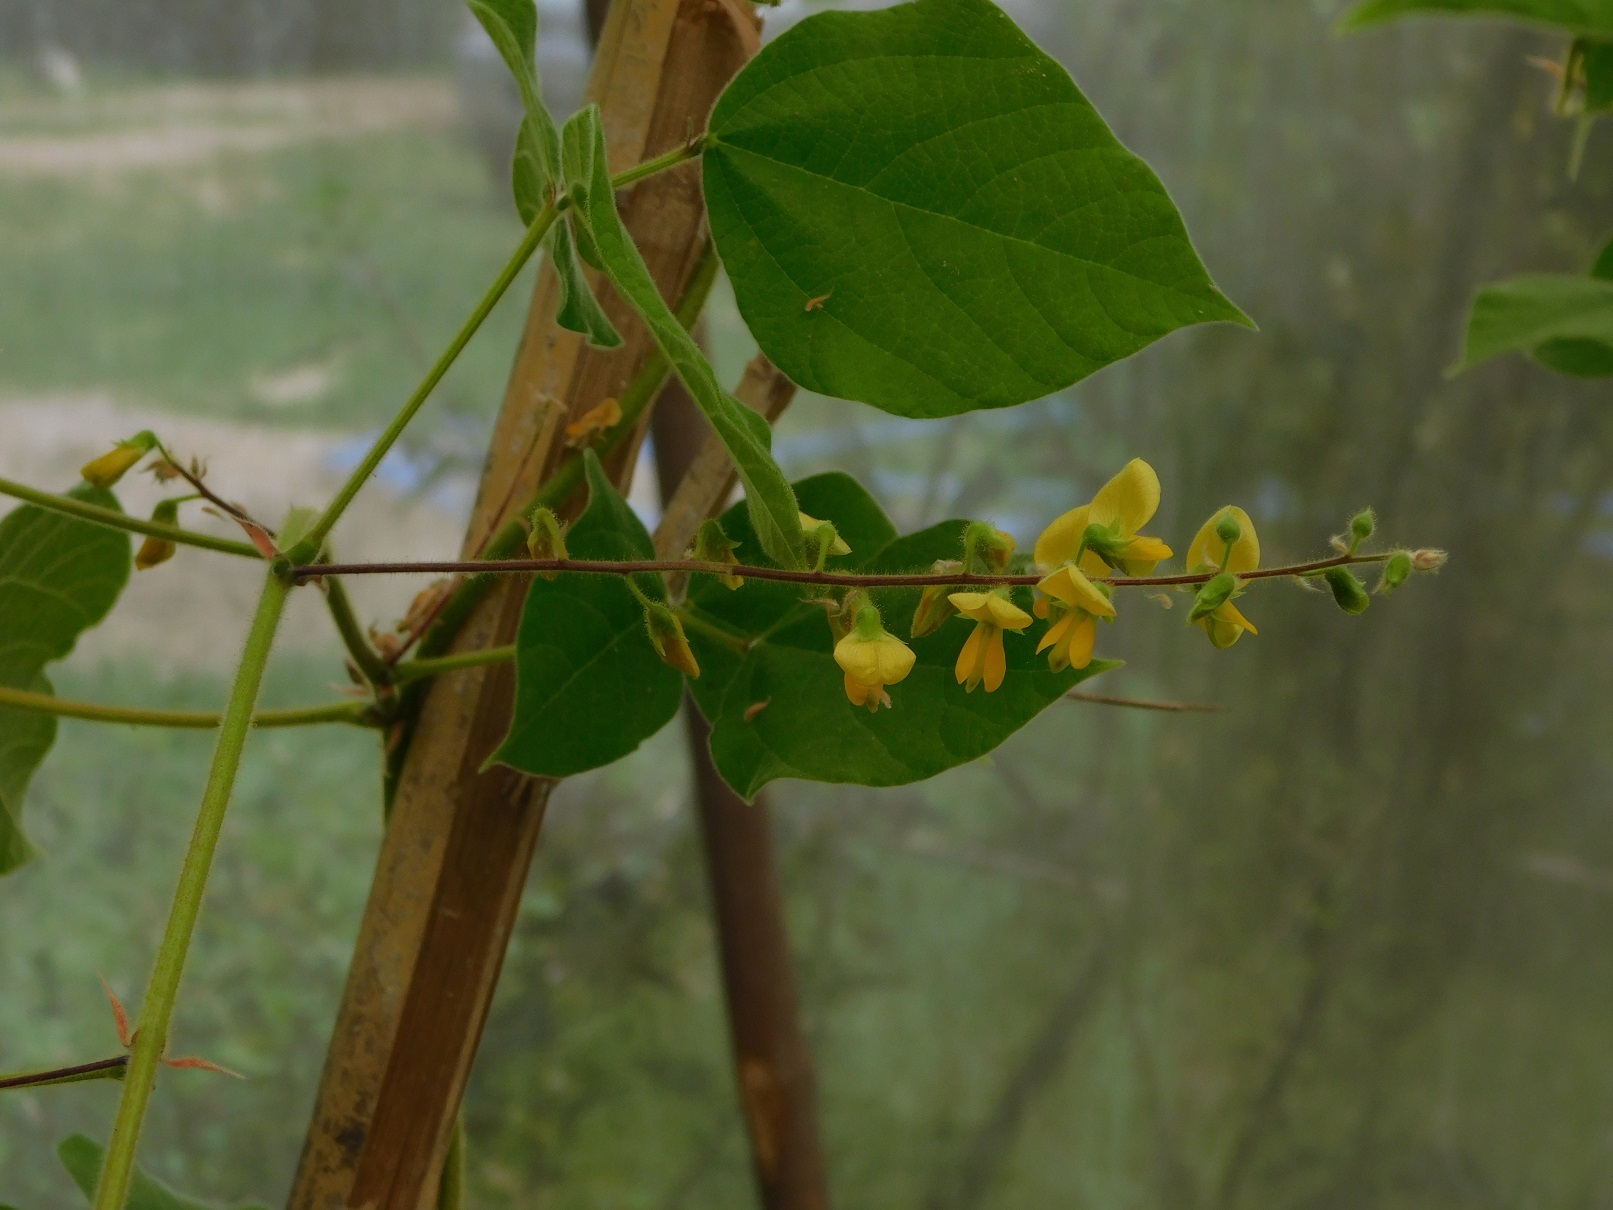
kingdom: Plantae
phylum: Tracheophyta
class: Magnoliopsida
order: Fabales
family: Fabaceae
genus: Rhynchosia
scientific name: Rhynchosia erythrinoides
